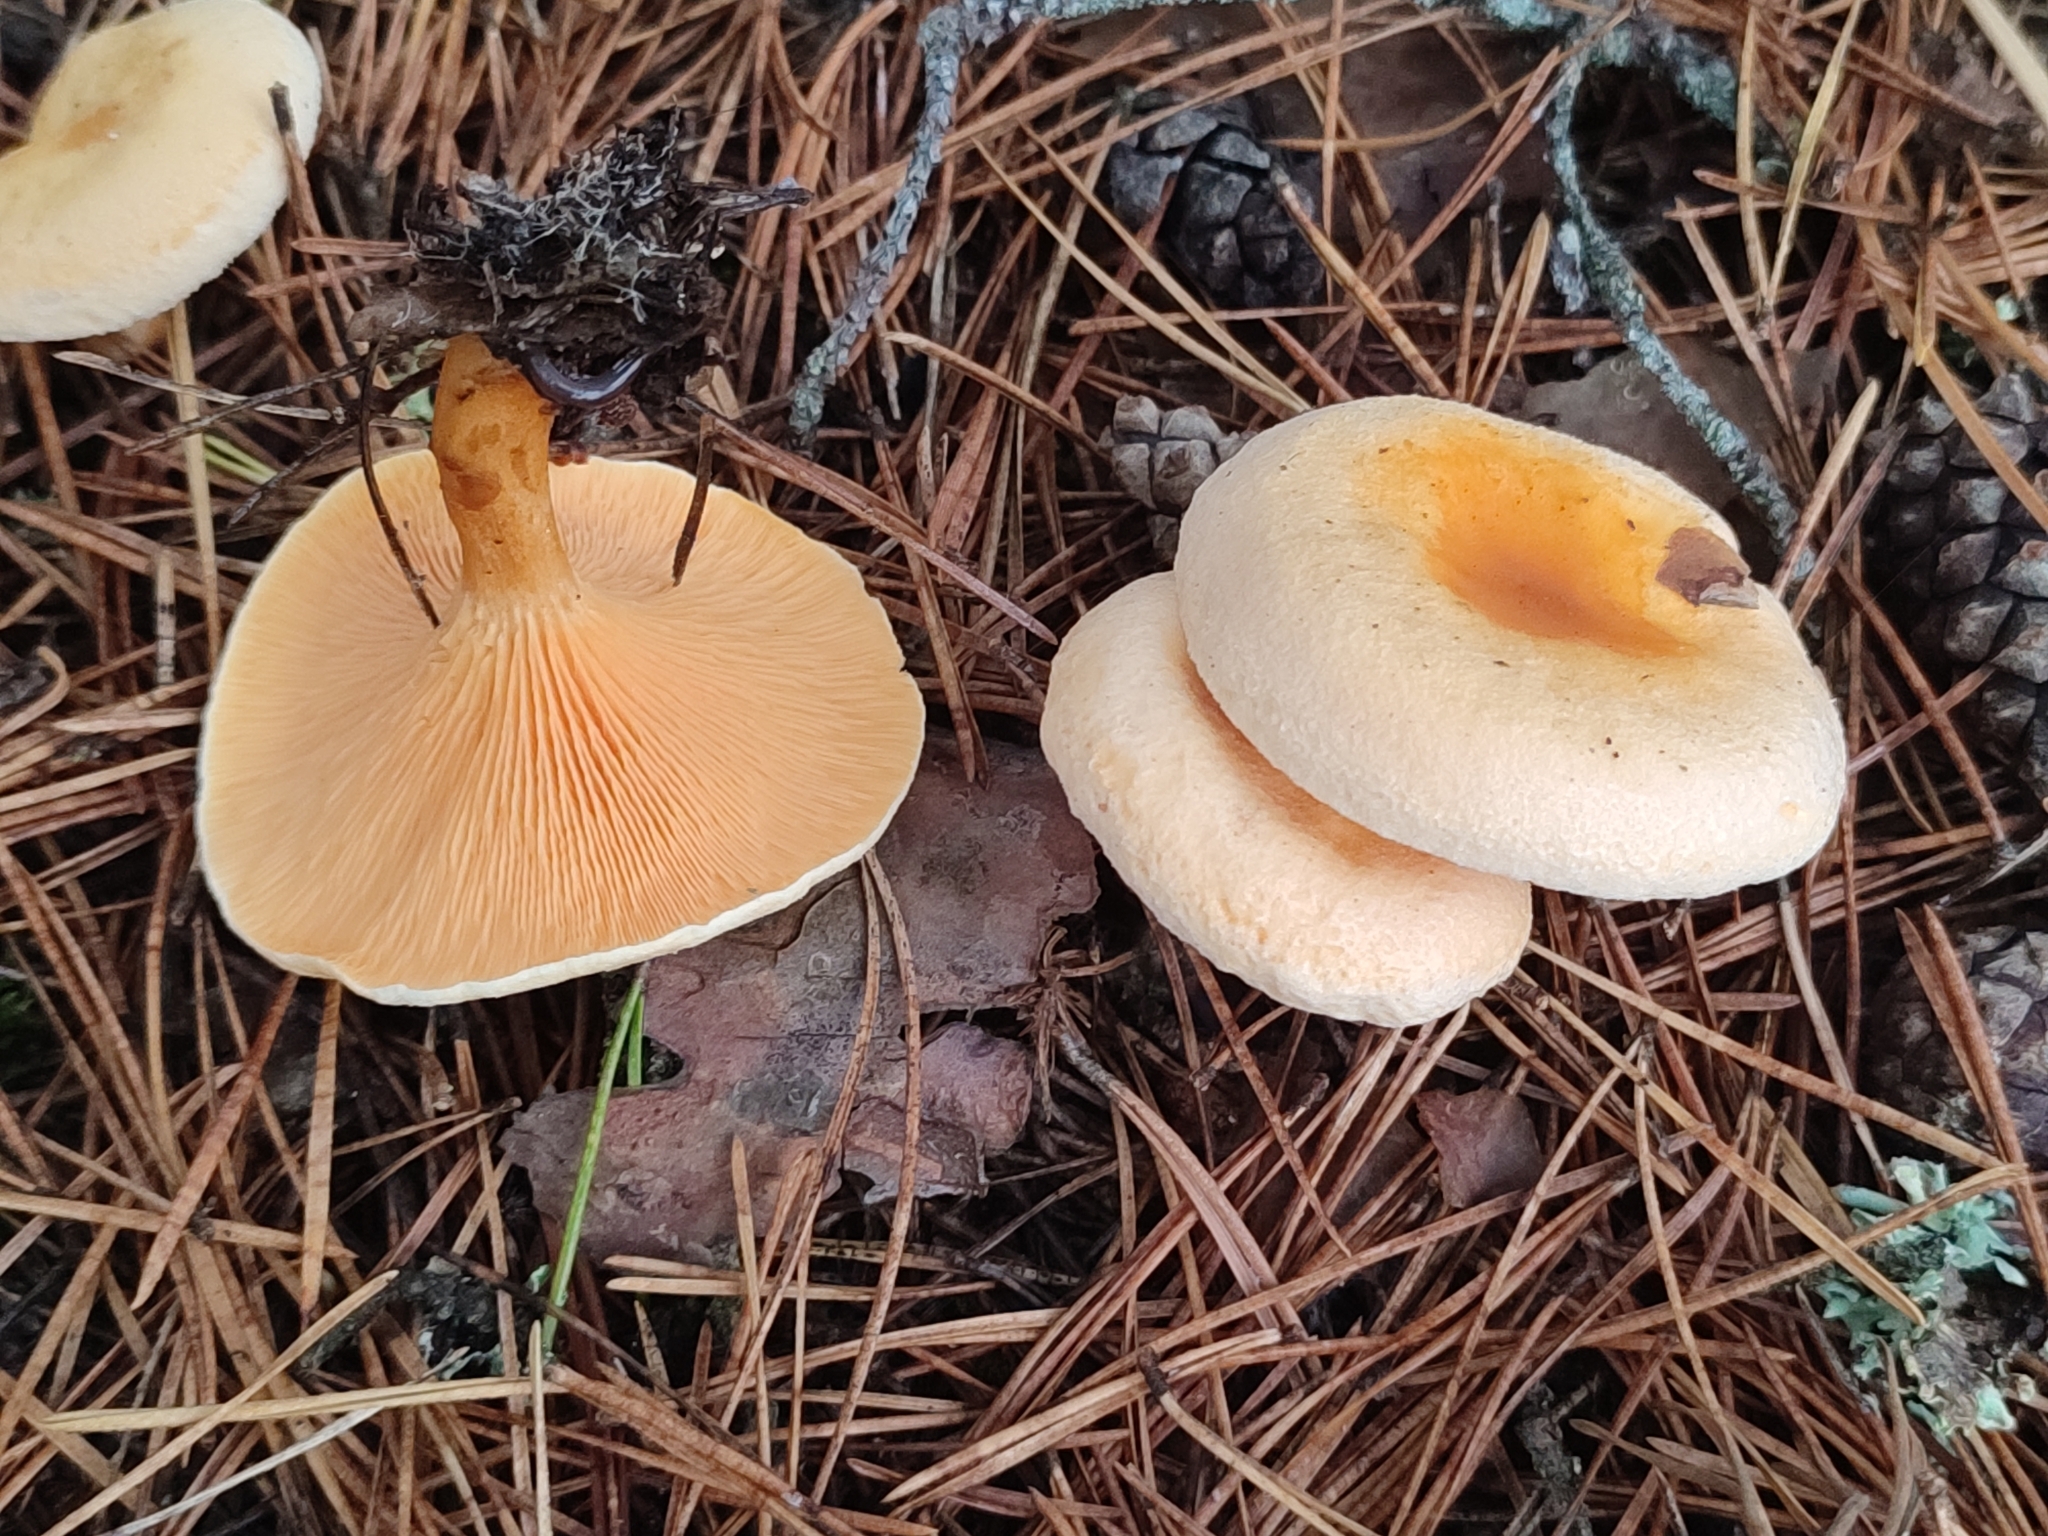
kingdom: Fungi
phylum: Basidiomycota
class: Agaricomycetes
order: Boletales
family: Hygrophoropsidaceae
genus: Hygrophoropsis
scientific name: Hygrophoropsis aurantiaca
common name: False chanterelle
